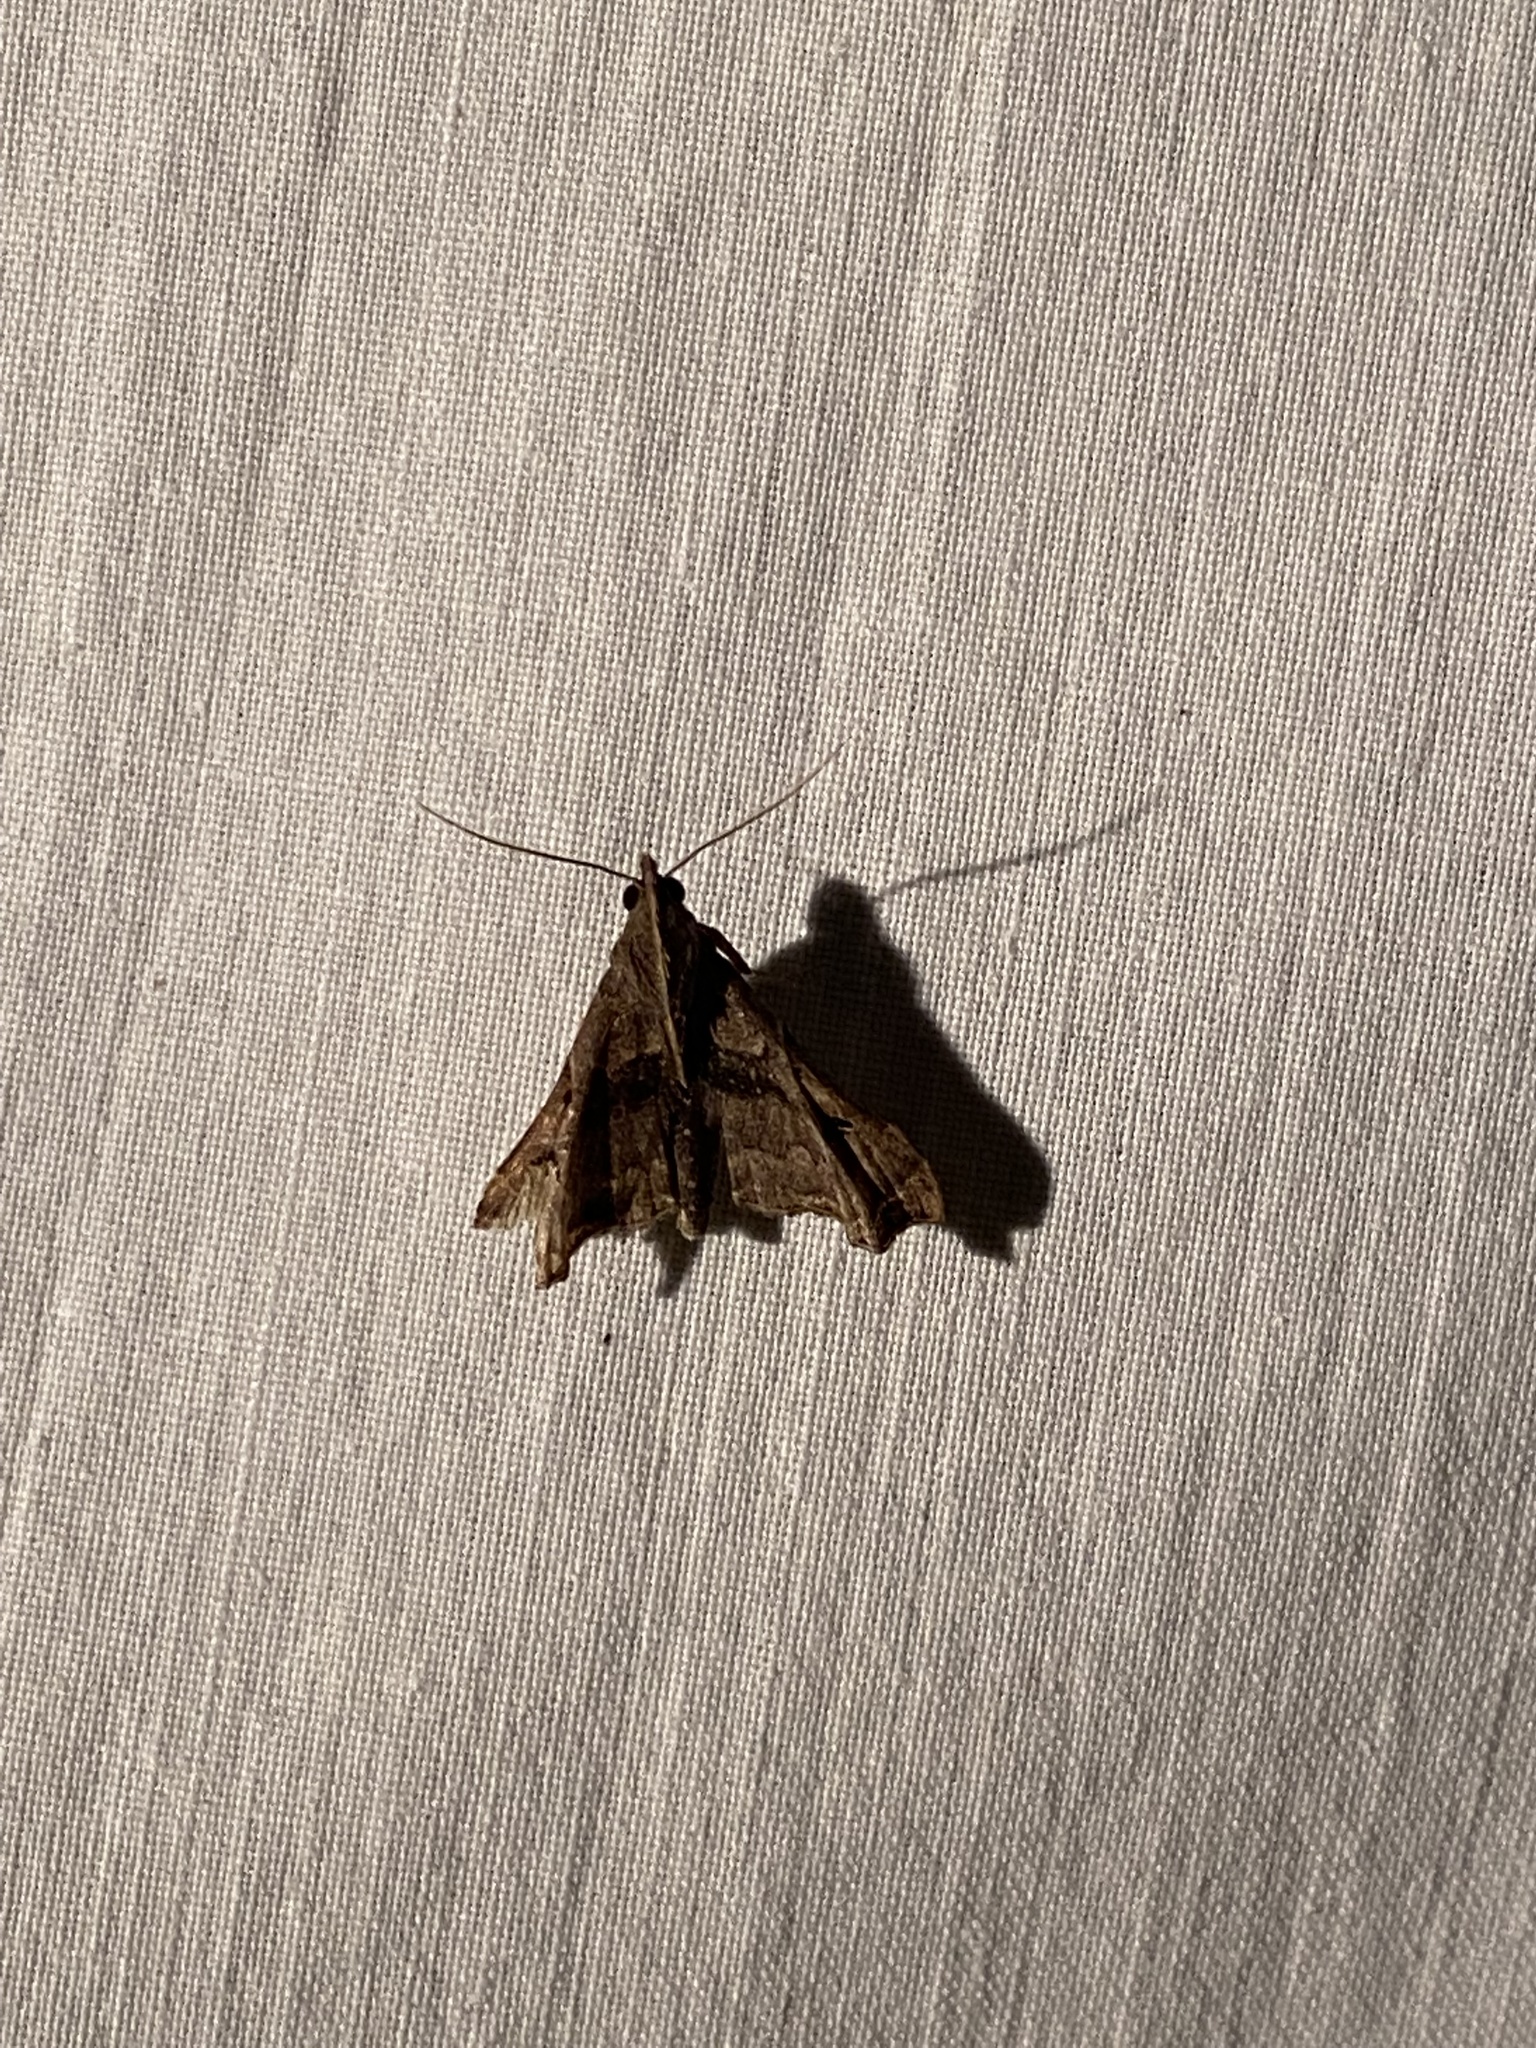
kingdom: Animalia
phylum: Arthropoda
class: Insecta
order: Lepidoptera
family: Erebidae
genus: Palthis
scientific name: Palthis asopialis
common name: Faint-spotted palthis moth
